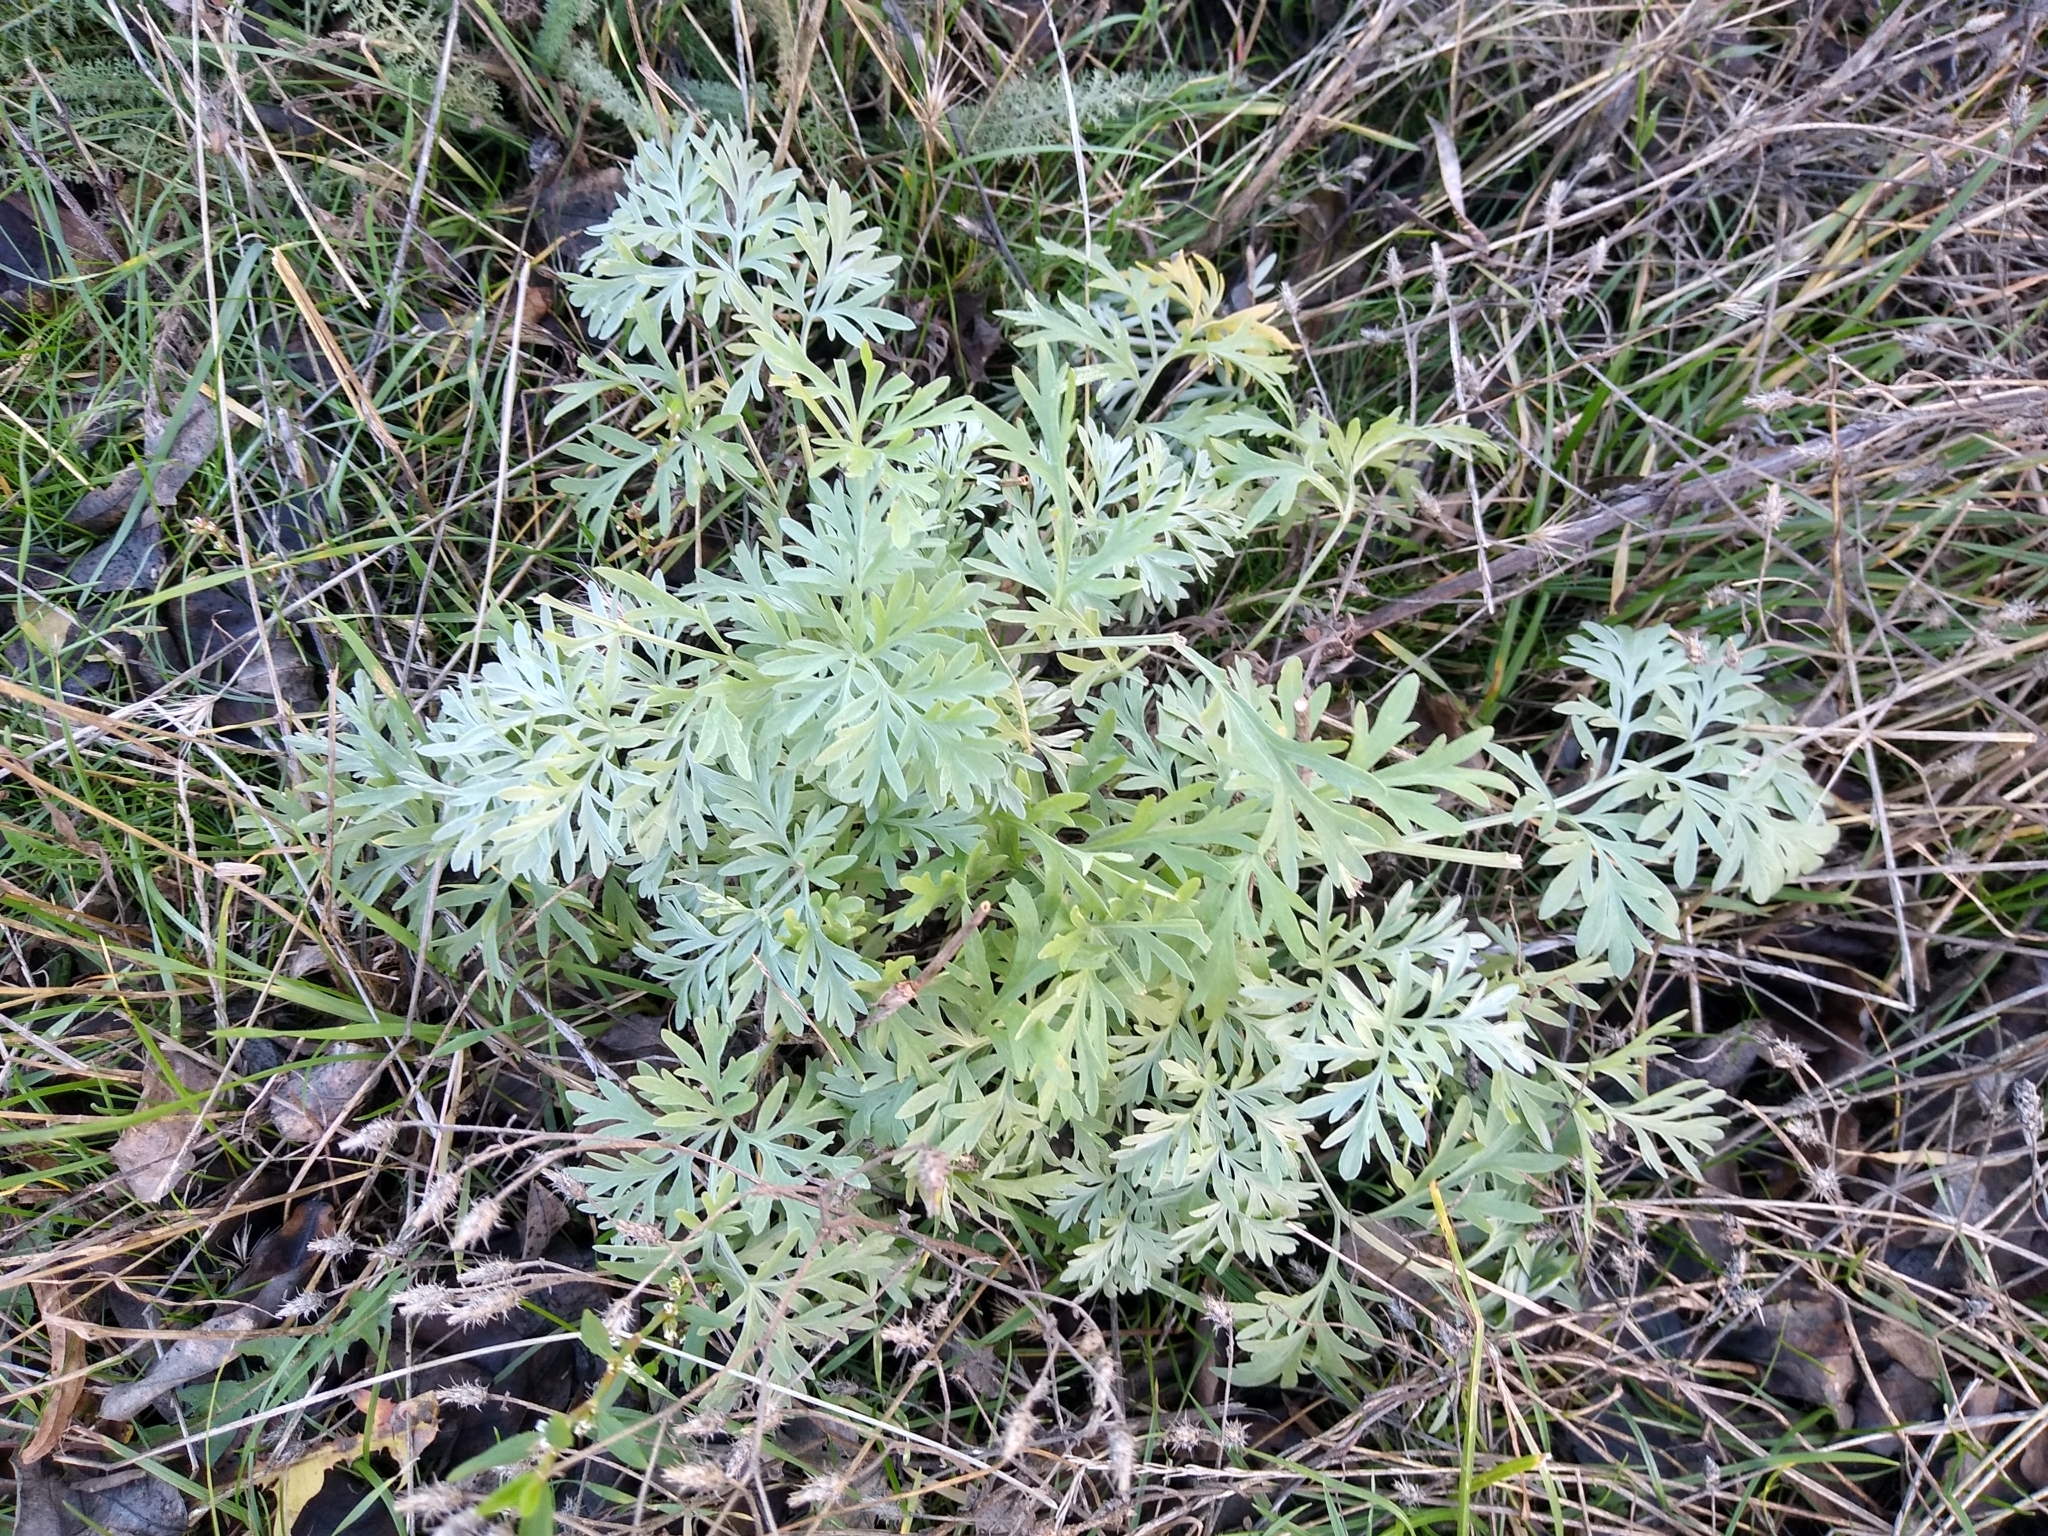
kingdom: Plantae
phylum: Tracheophyta
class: Magnoliopsida
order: Asterales
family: Asteraceae
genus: Artemisia
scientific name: Artemisia absinthium
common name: Wormwood
